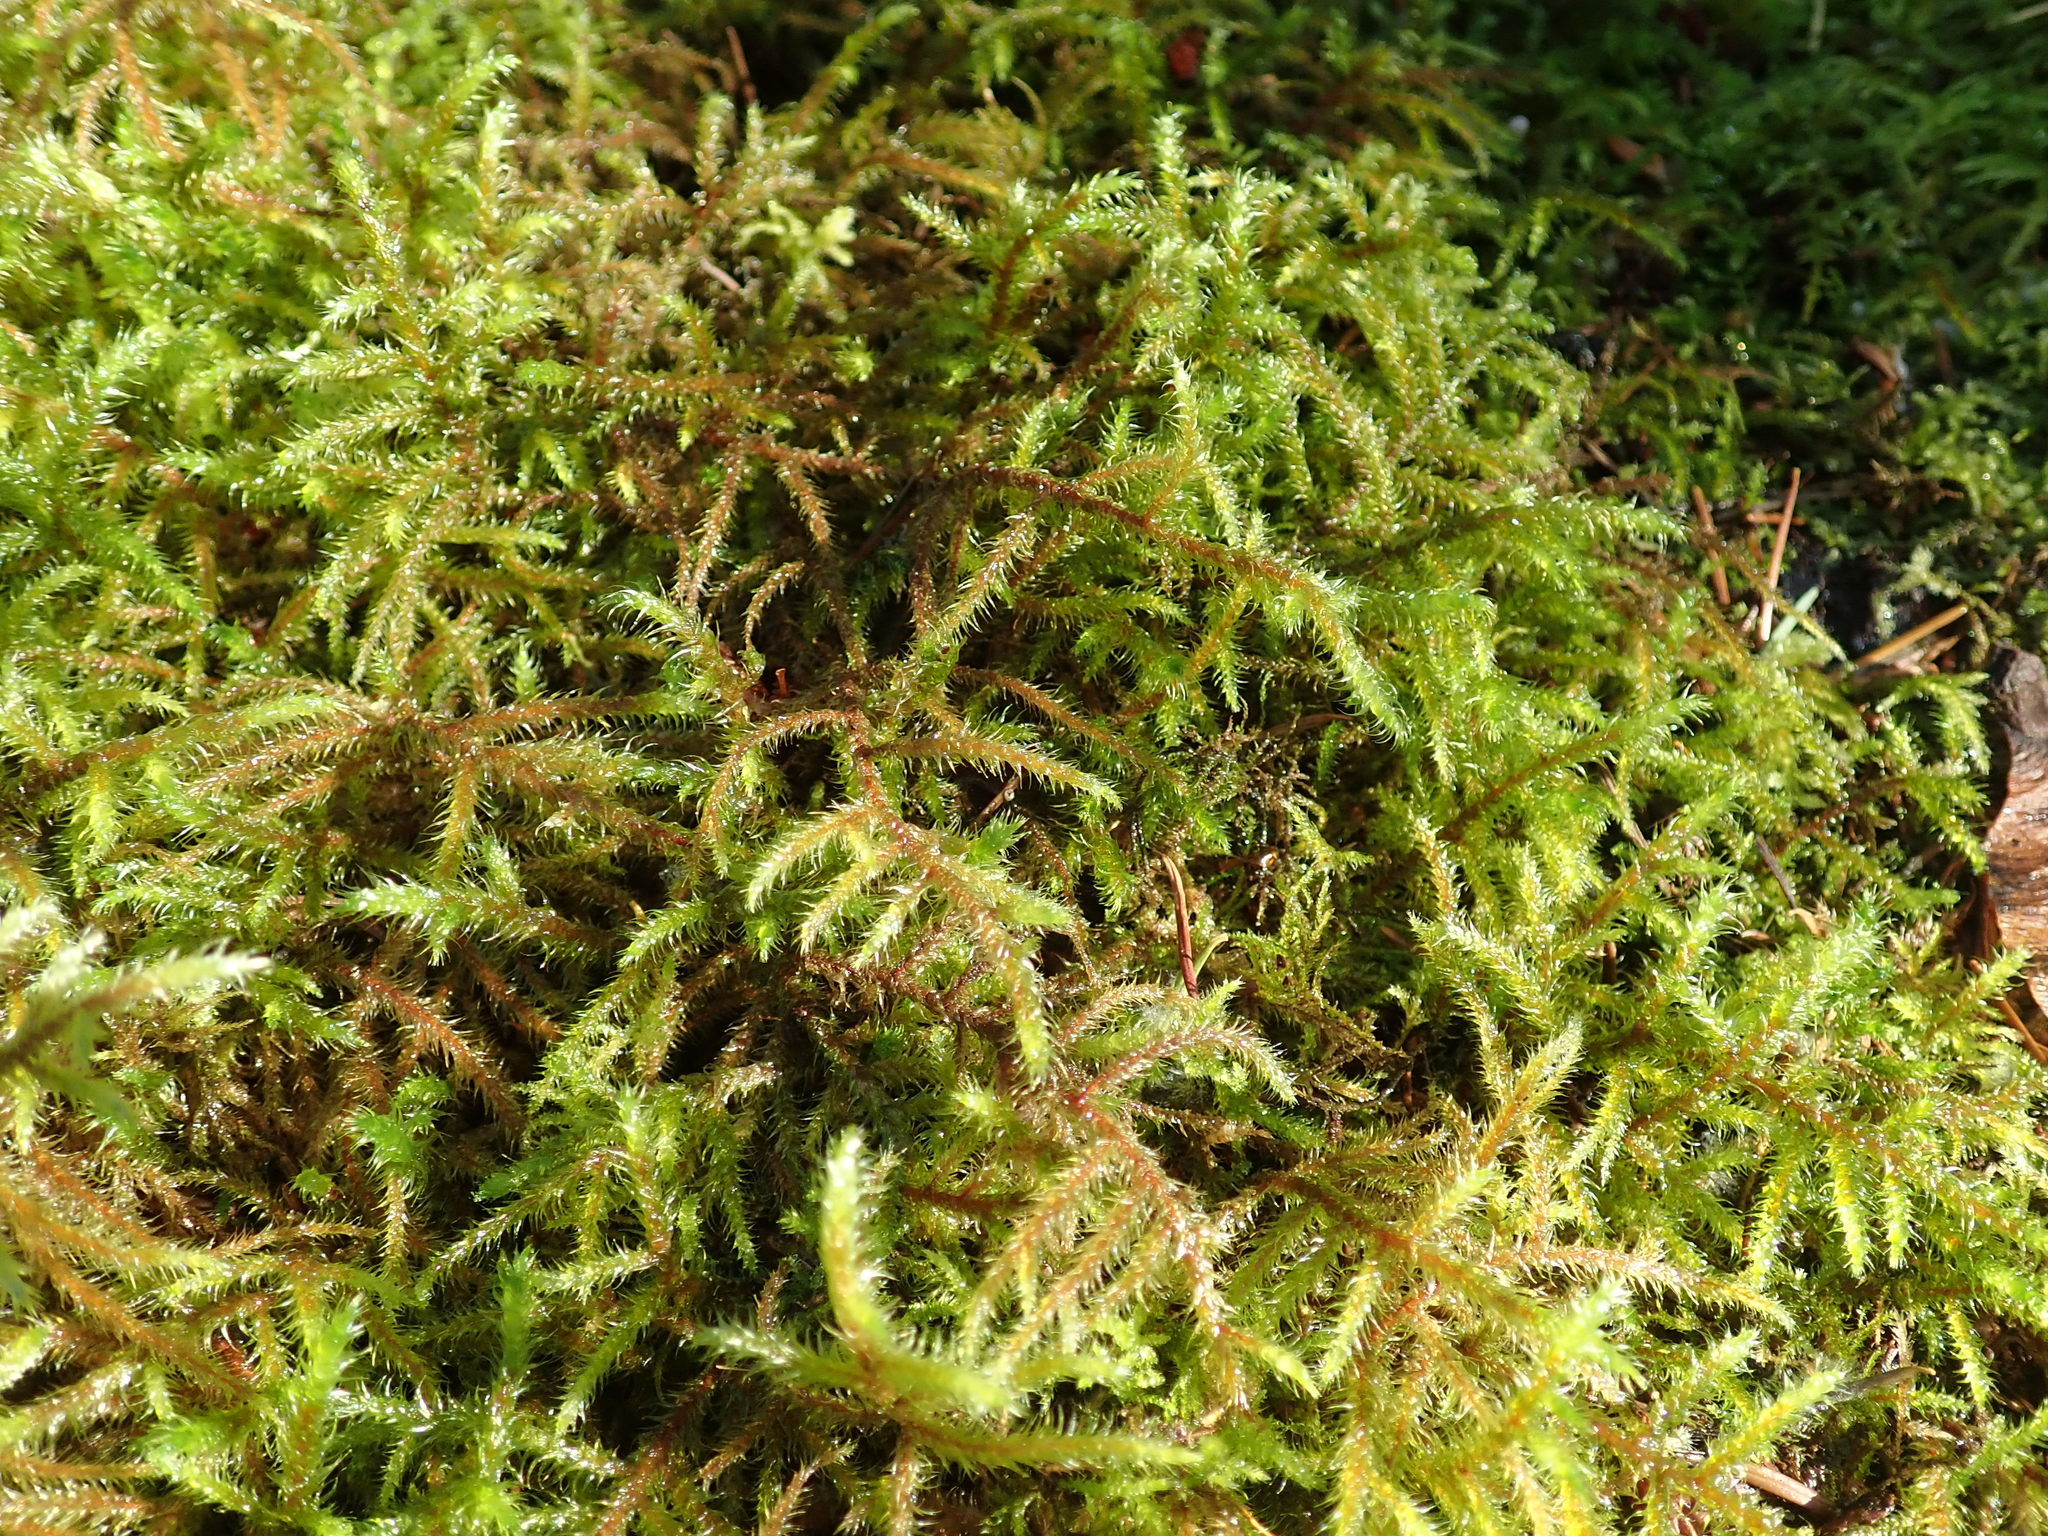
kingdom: Plantae
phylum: Bryophyta
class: Bryopsida
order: Hypnales
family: Hylocomiaceae
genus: Rhytidiadelphus
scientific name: Rhytidiadelphus loreus
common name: Lanky moss
